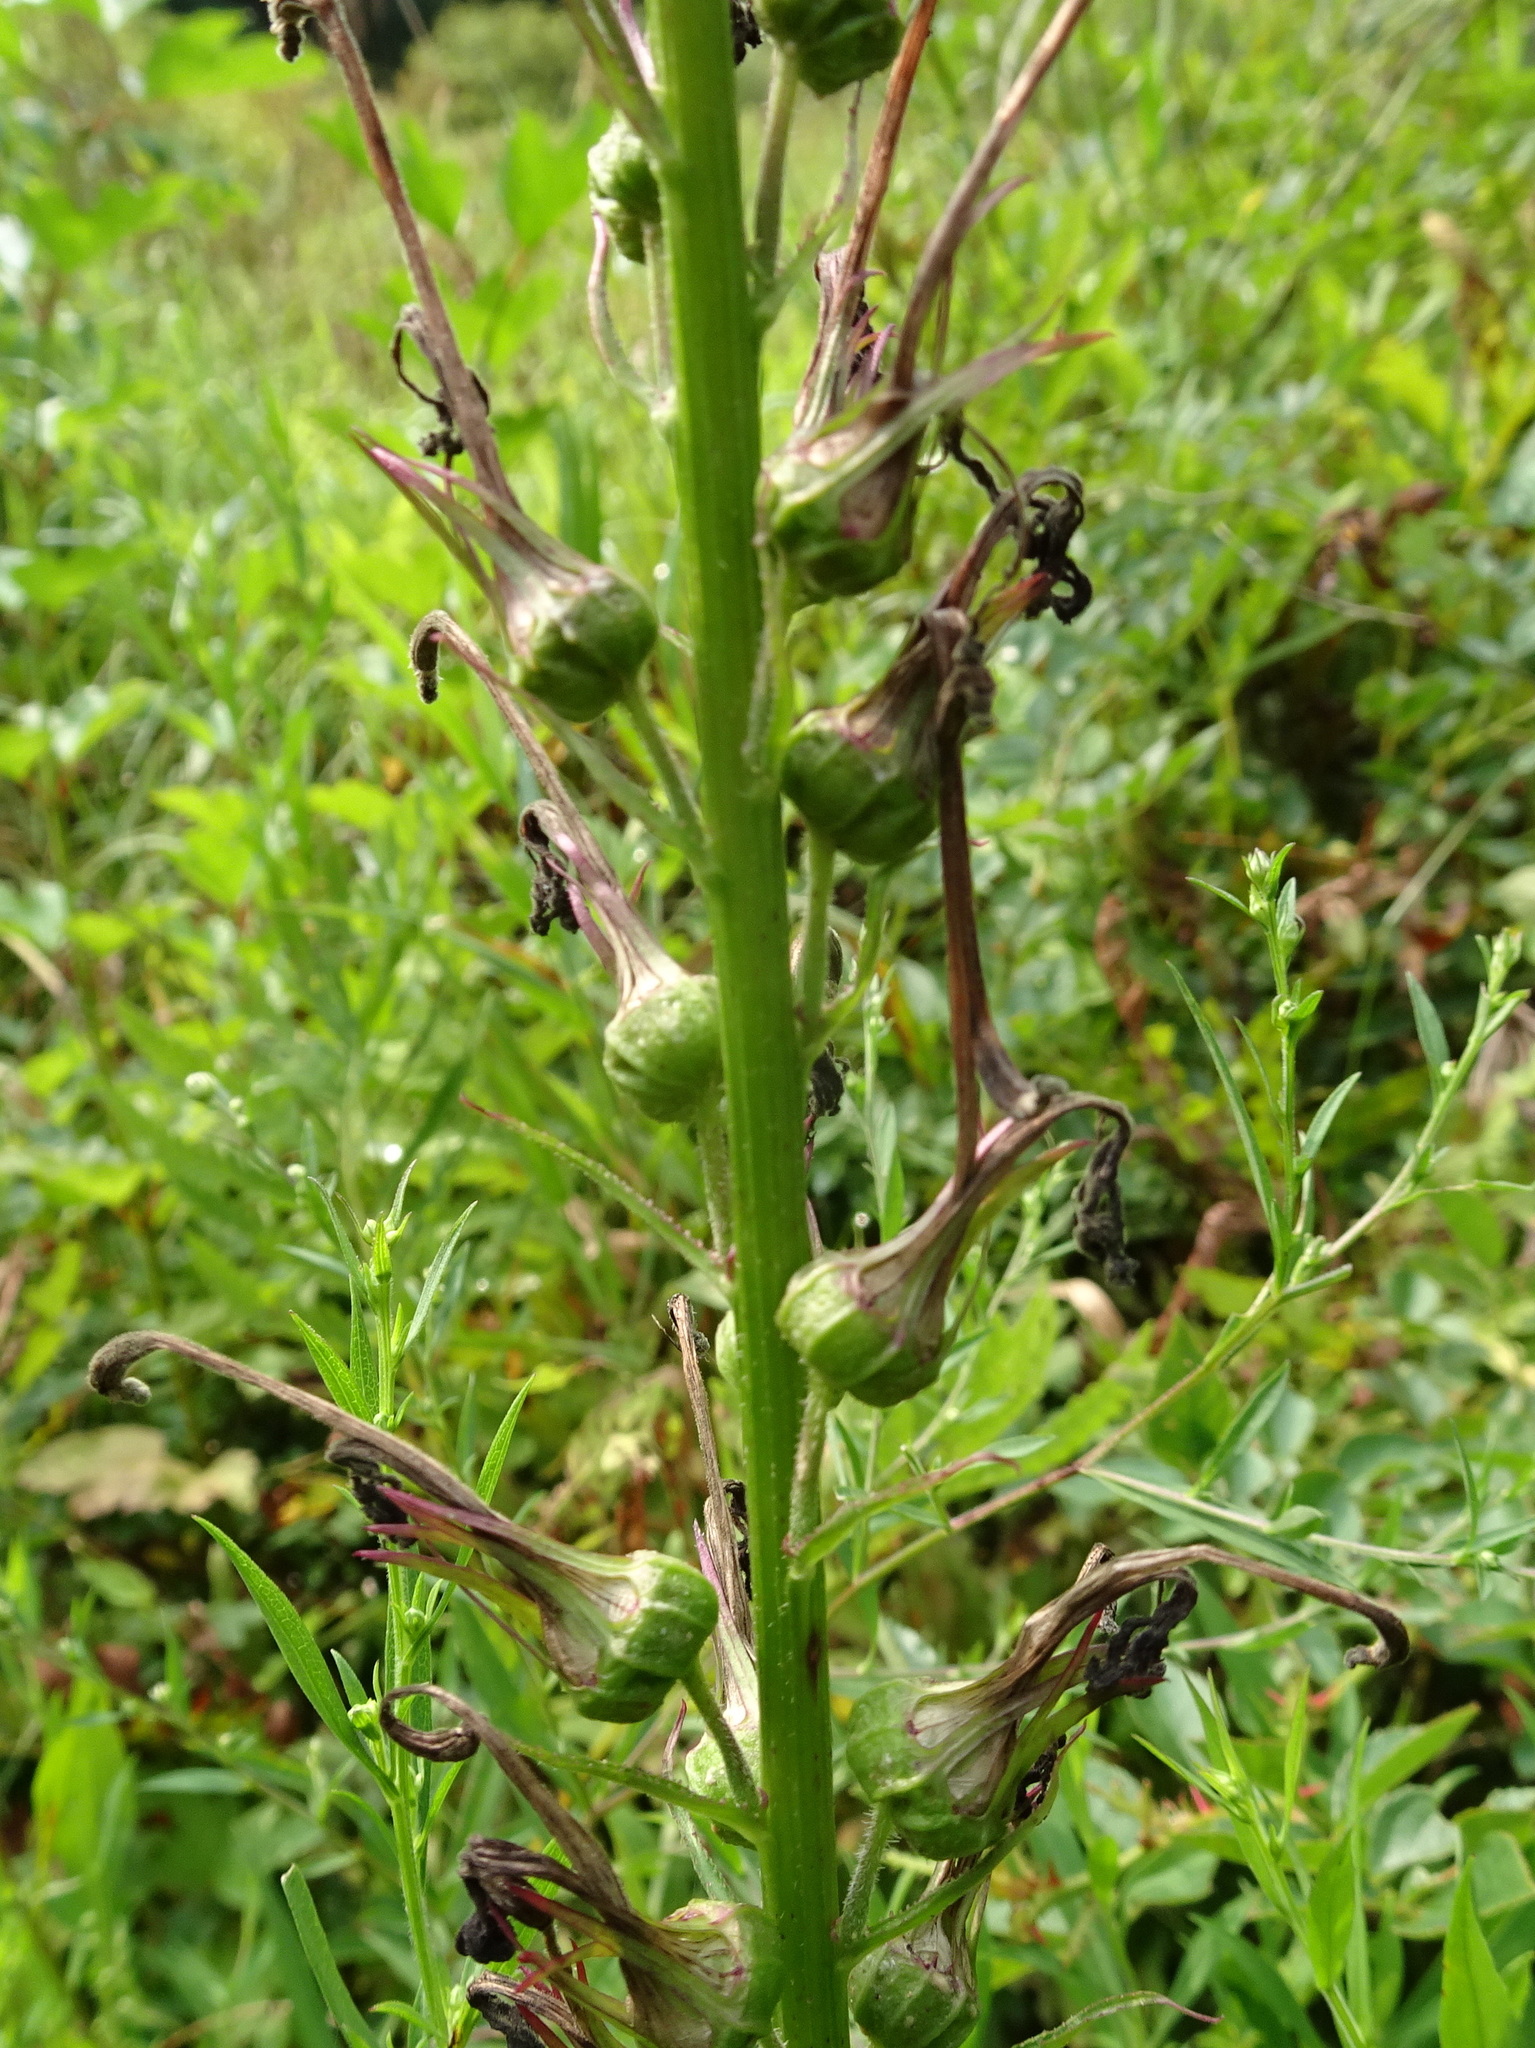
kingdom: Plantae
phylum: Tracheophyta
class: Magnoliopsida
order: Asterales
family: Campanulaceae
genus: Lobelia
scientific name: Lobelia cardinalis
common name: Cardinal flower
